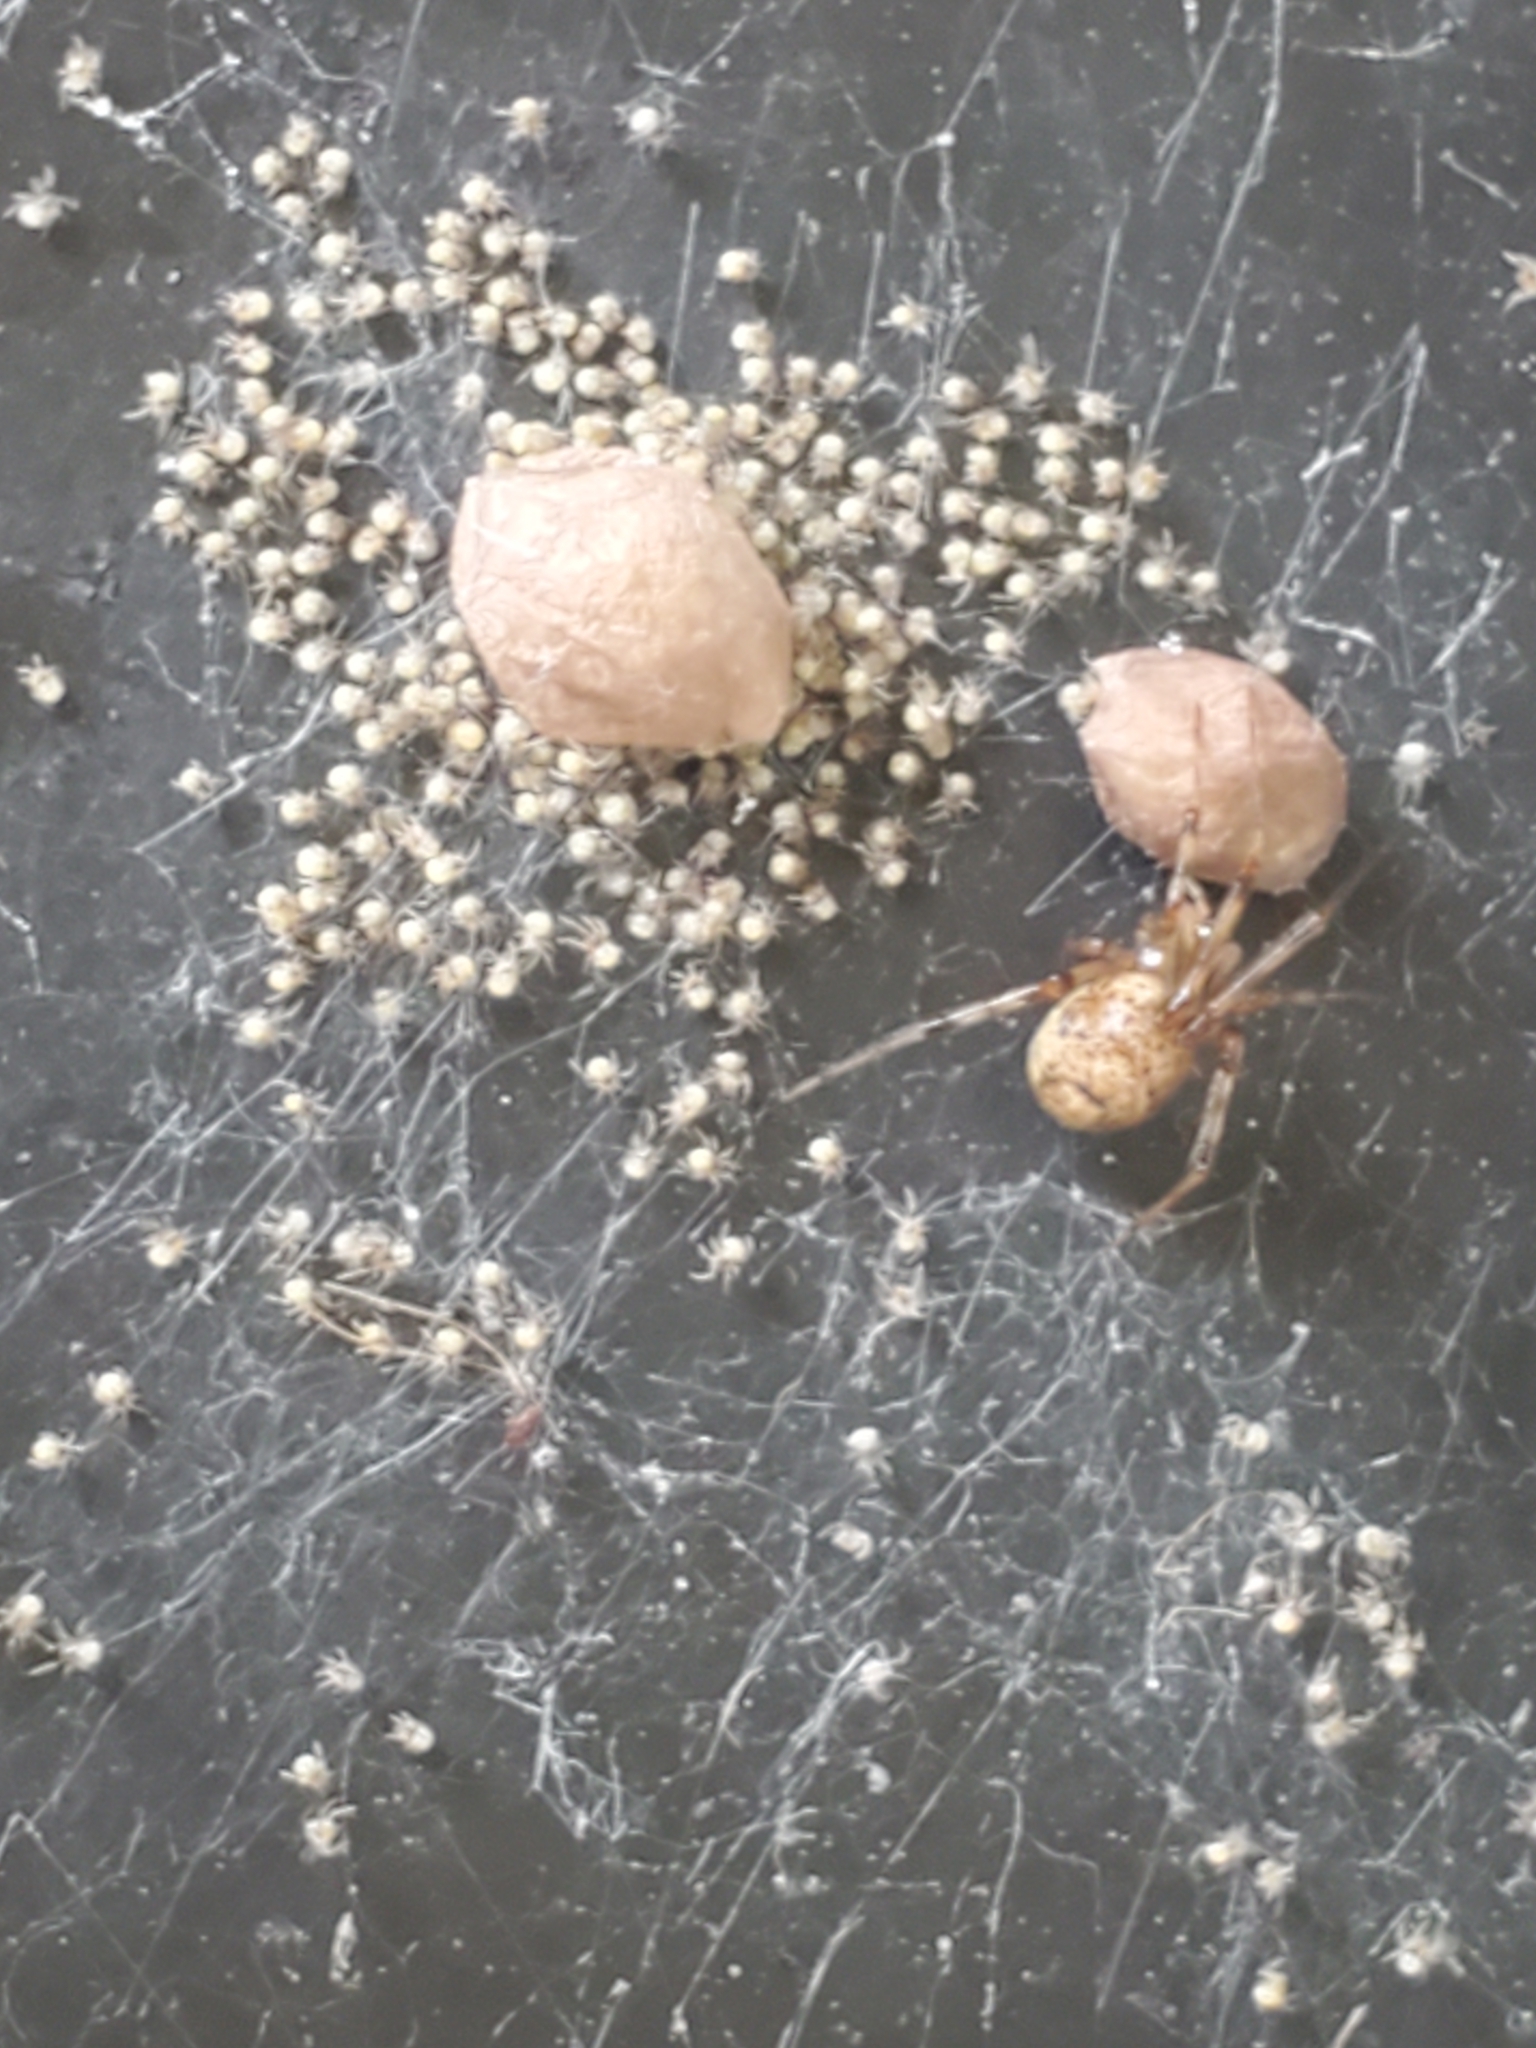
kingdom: Animalia
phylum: Arthropoda
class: Arachnida
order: Araneae
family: Theridiidae
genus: Parasteatoda
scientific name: Parasteatoda tepidariorum
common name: Common house spider
